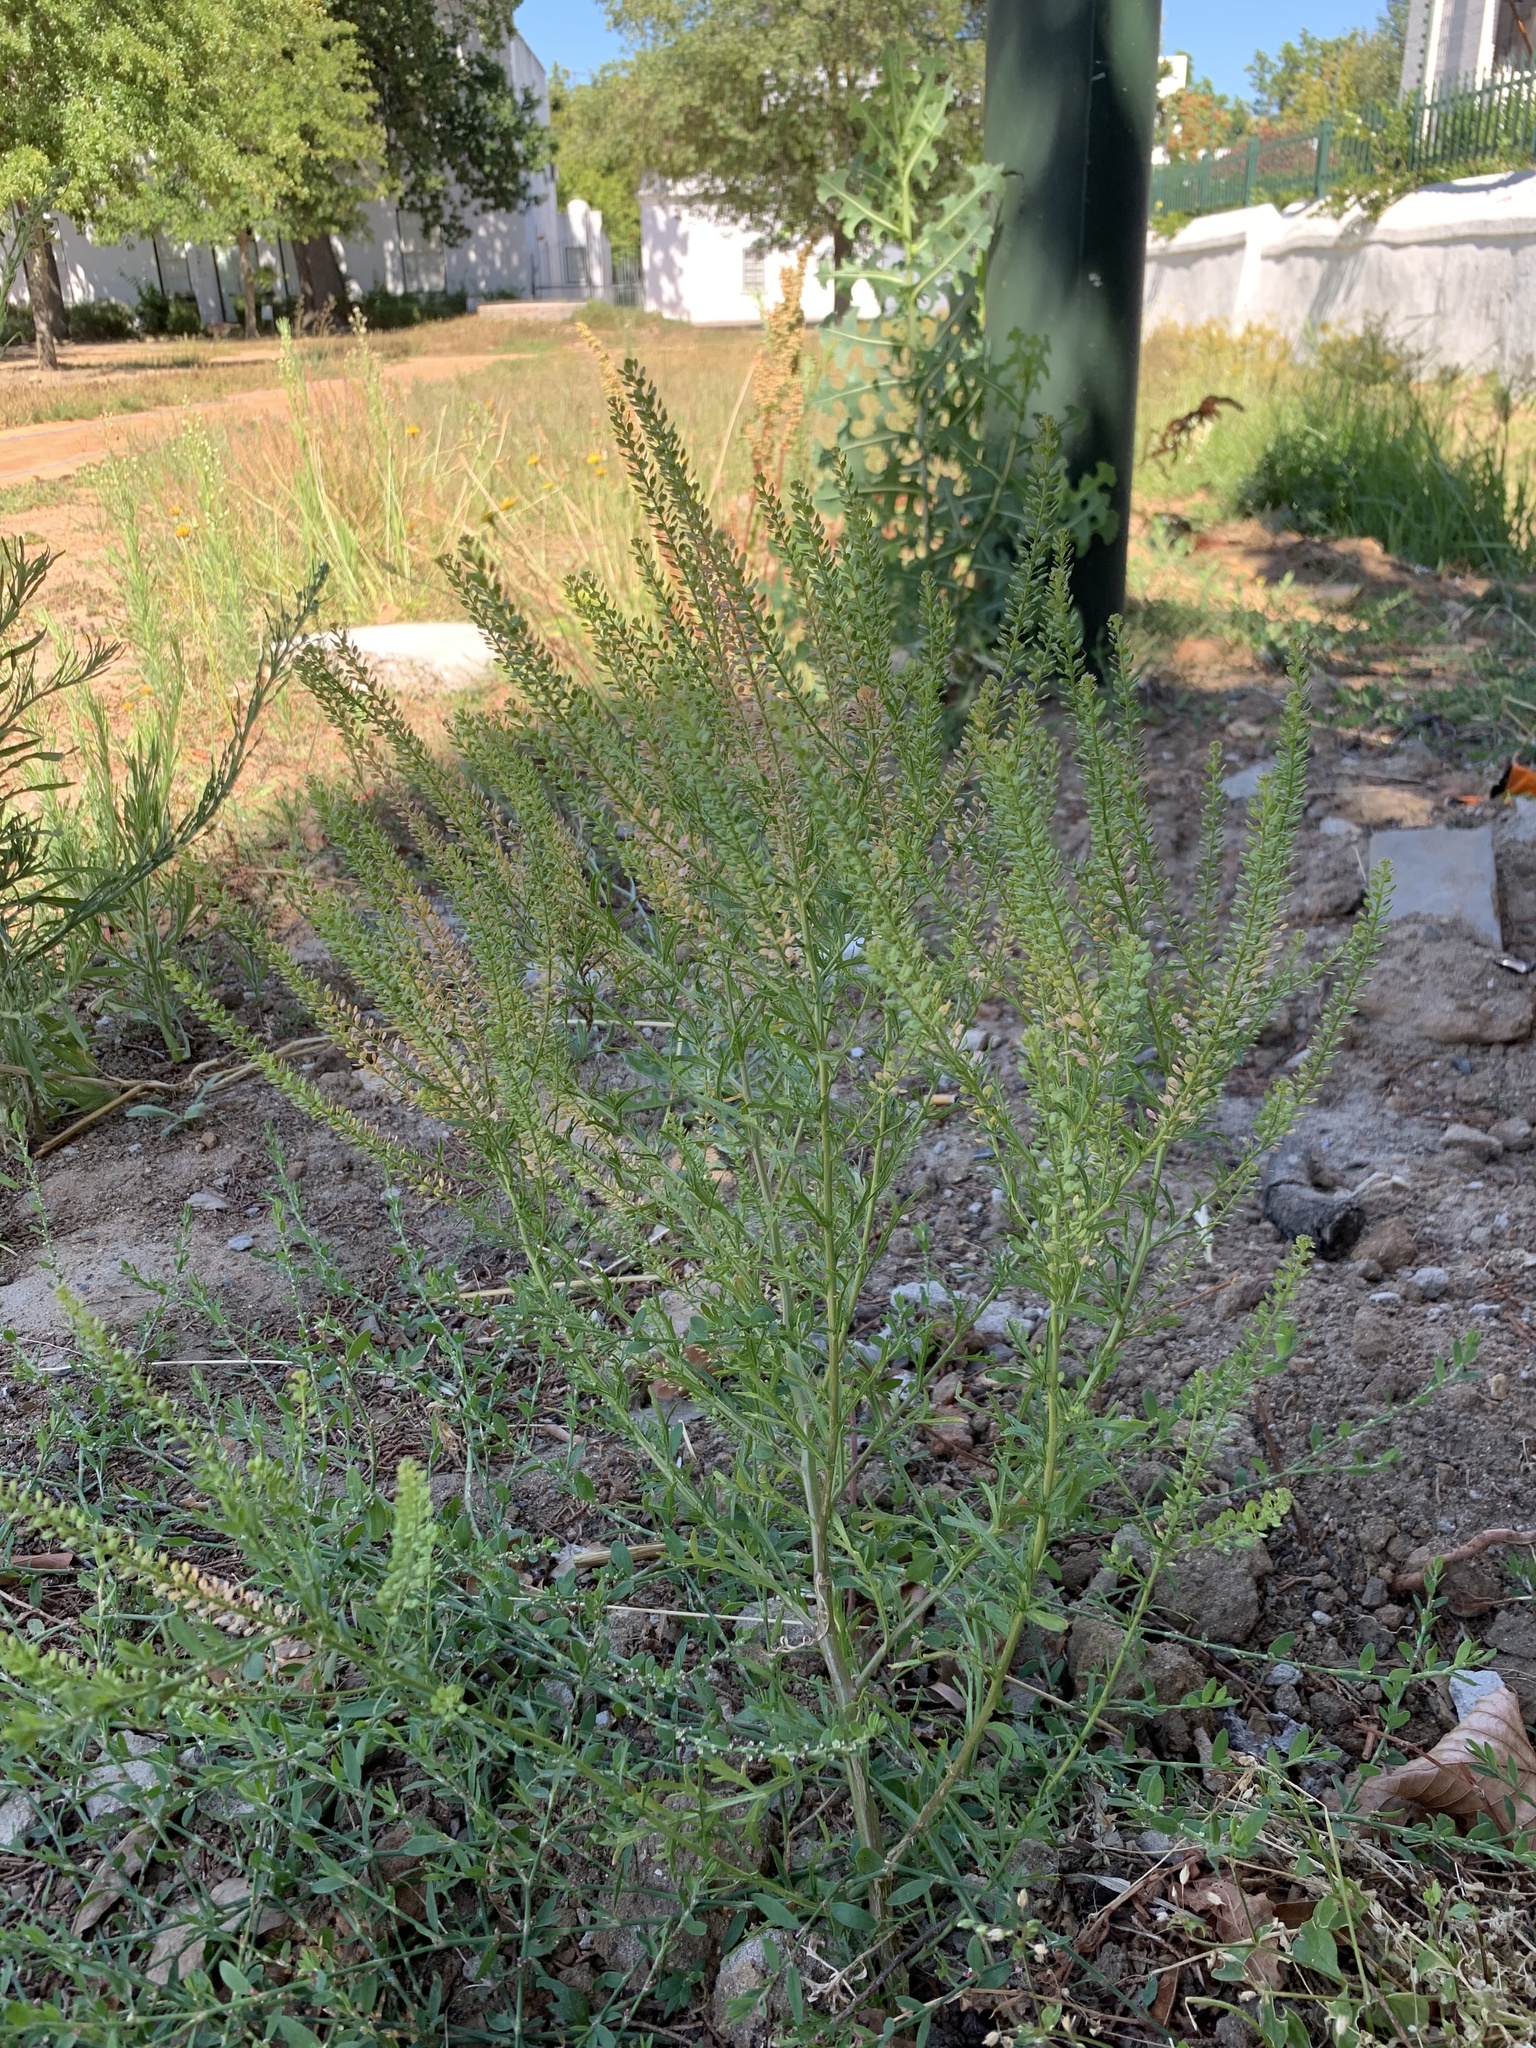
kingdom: Plantae
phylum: Tracheophyta
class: Magnoliopsida
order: Brassicales
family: Brassicaceae
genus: Lepidium
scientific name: Lepidium bonariense
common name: Argentine pepperwort
